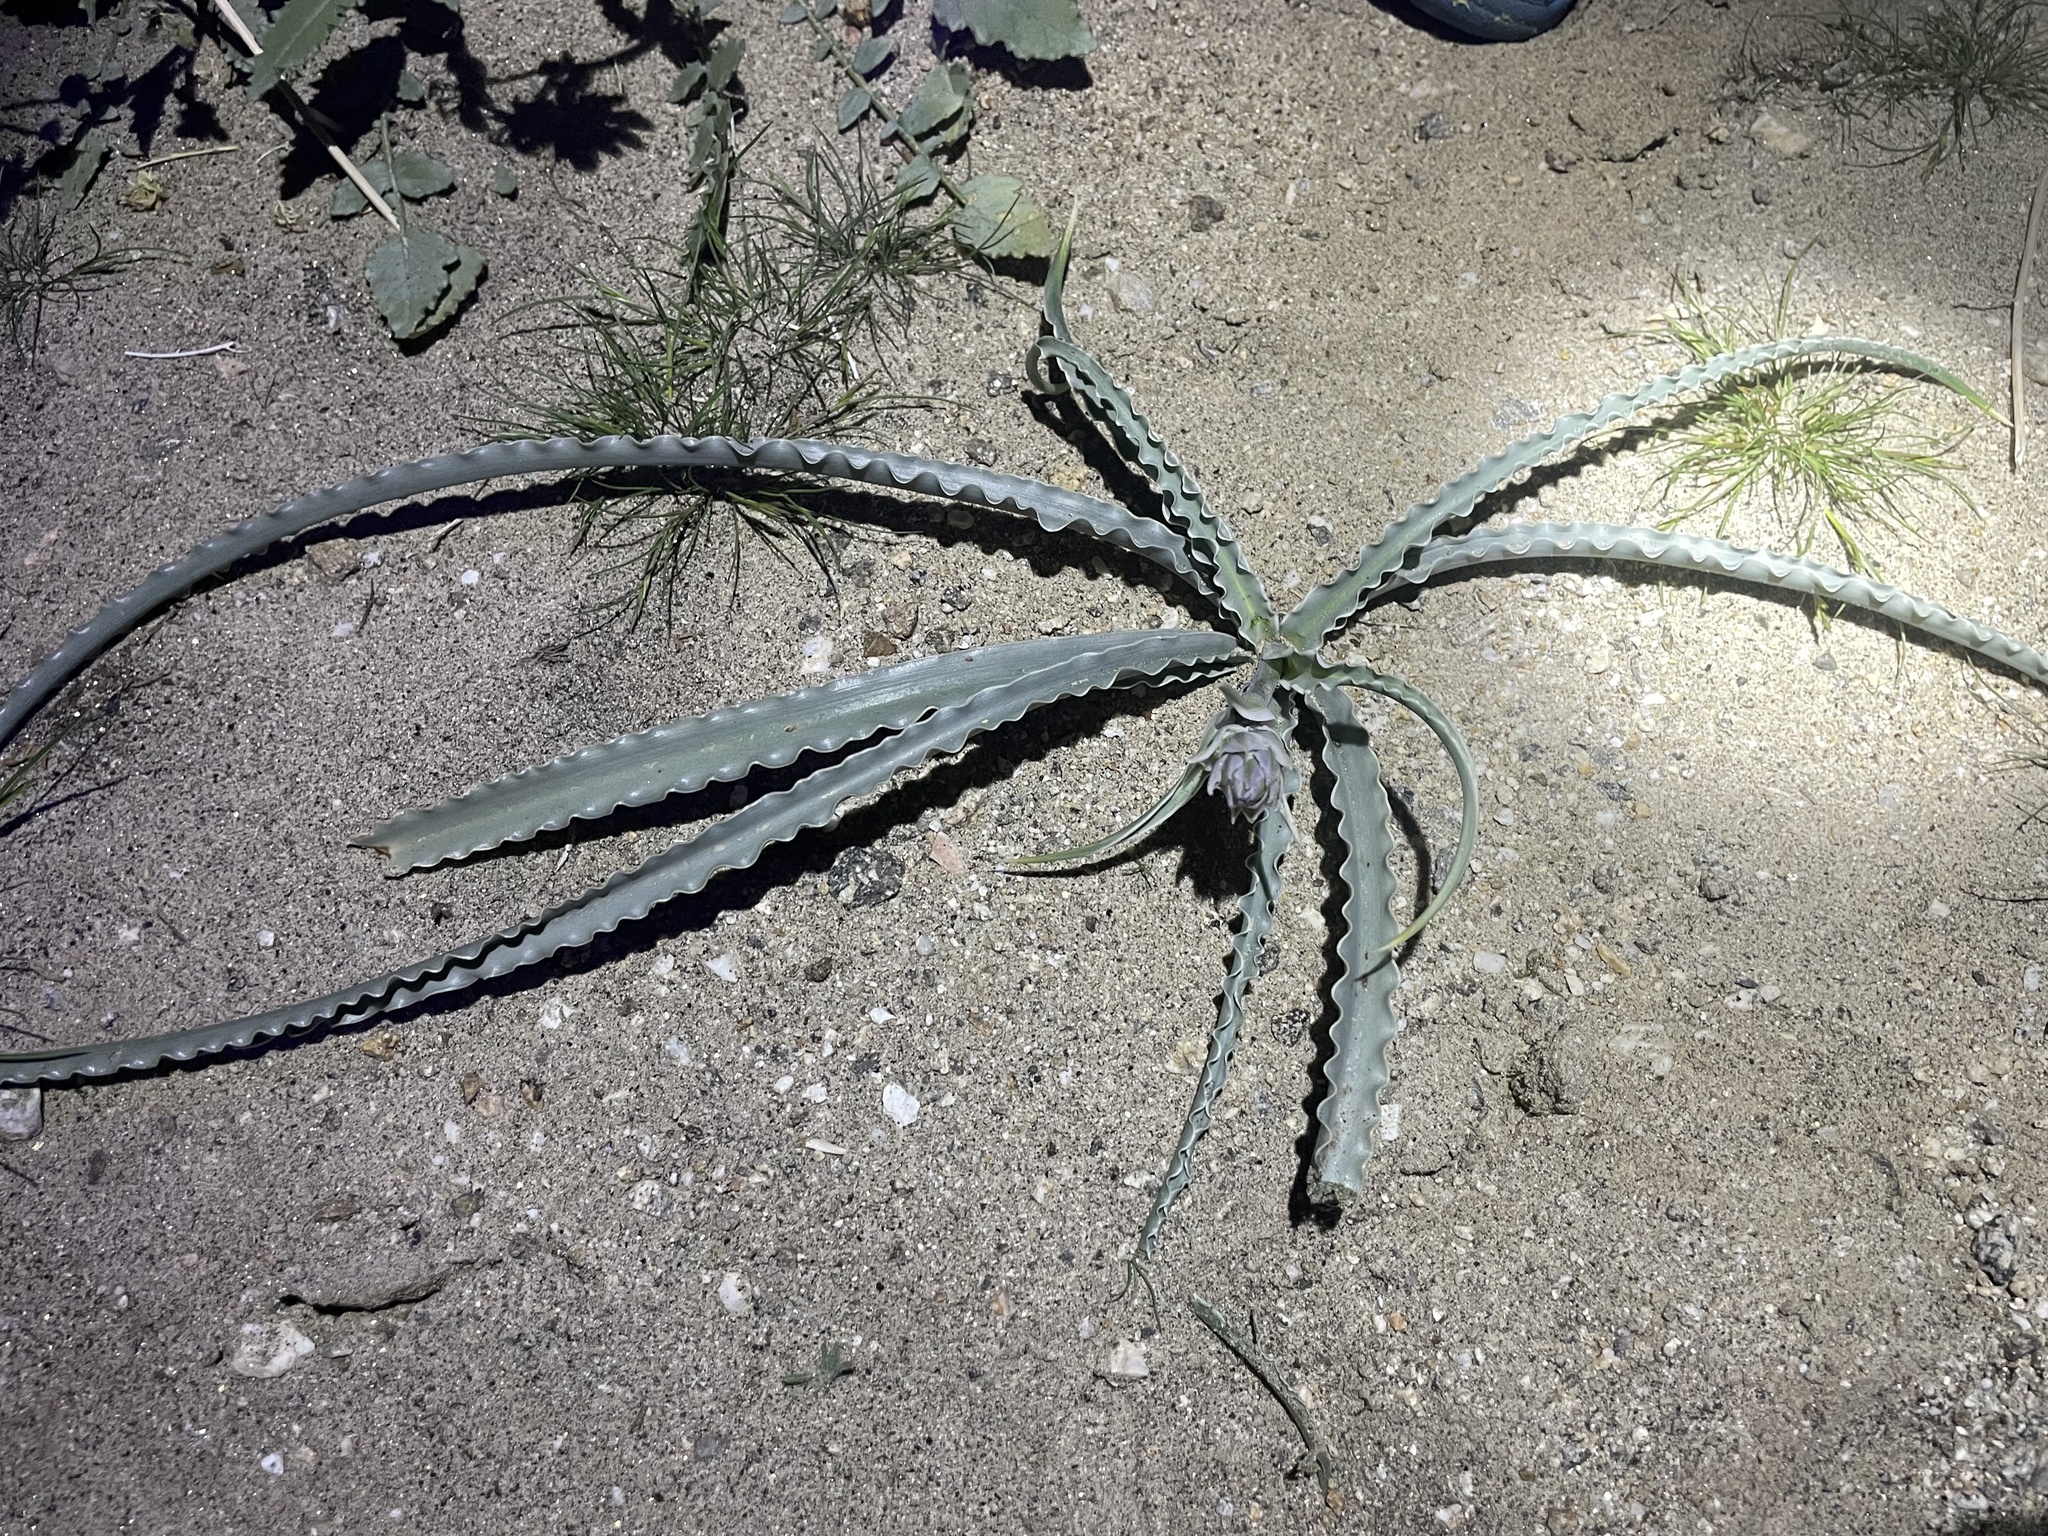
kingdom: Plantae
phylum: Tracheophyta
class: Liliopsida
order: Asparagales
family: Asparagaceae
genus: Hesperocallis
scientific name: Hesperocallis undulata
